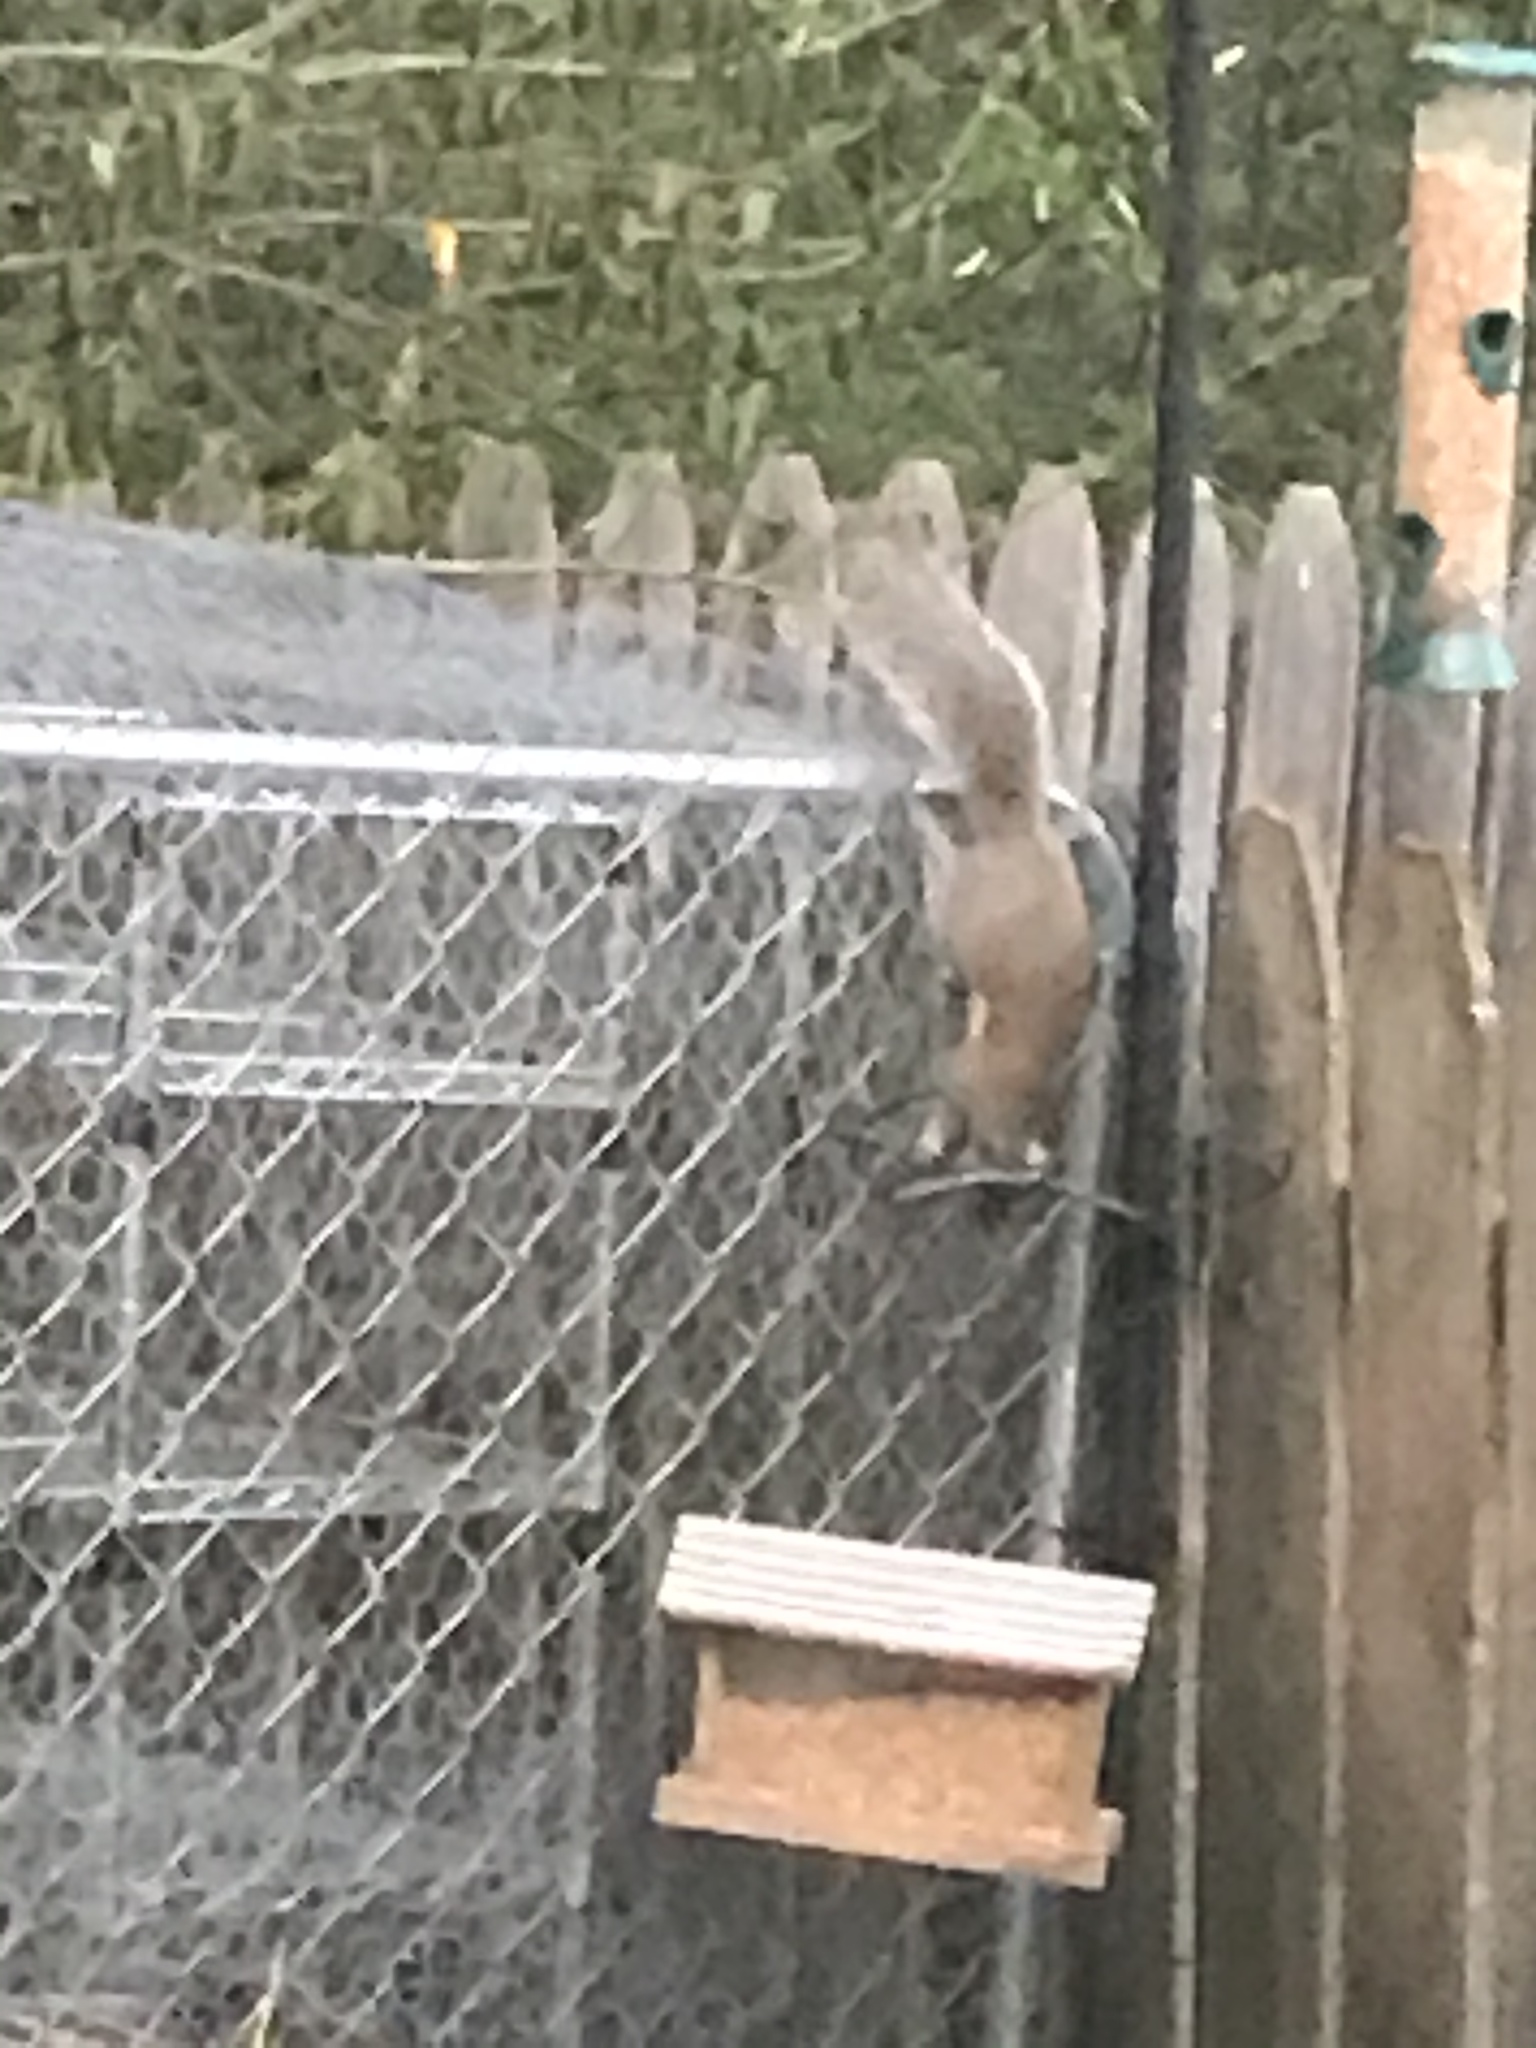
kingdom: Animalia
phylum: Chordata
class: Mammalia
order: Rodentia
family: Sciuridae
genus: Sciurus
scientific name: Sciurus carolinensis
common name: Eastern gray squirrel
